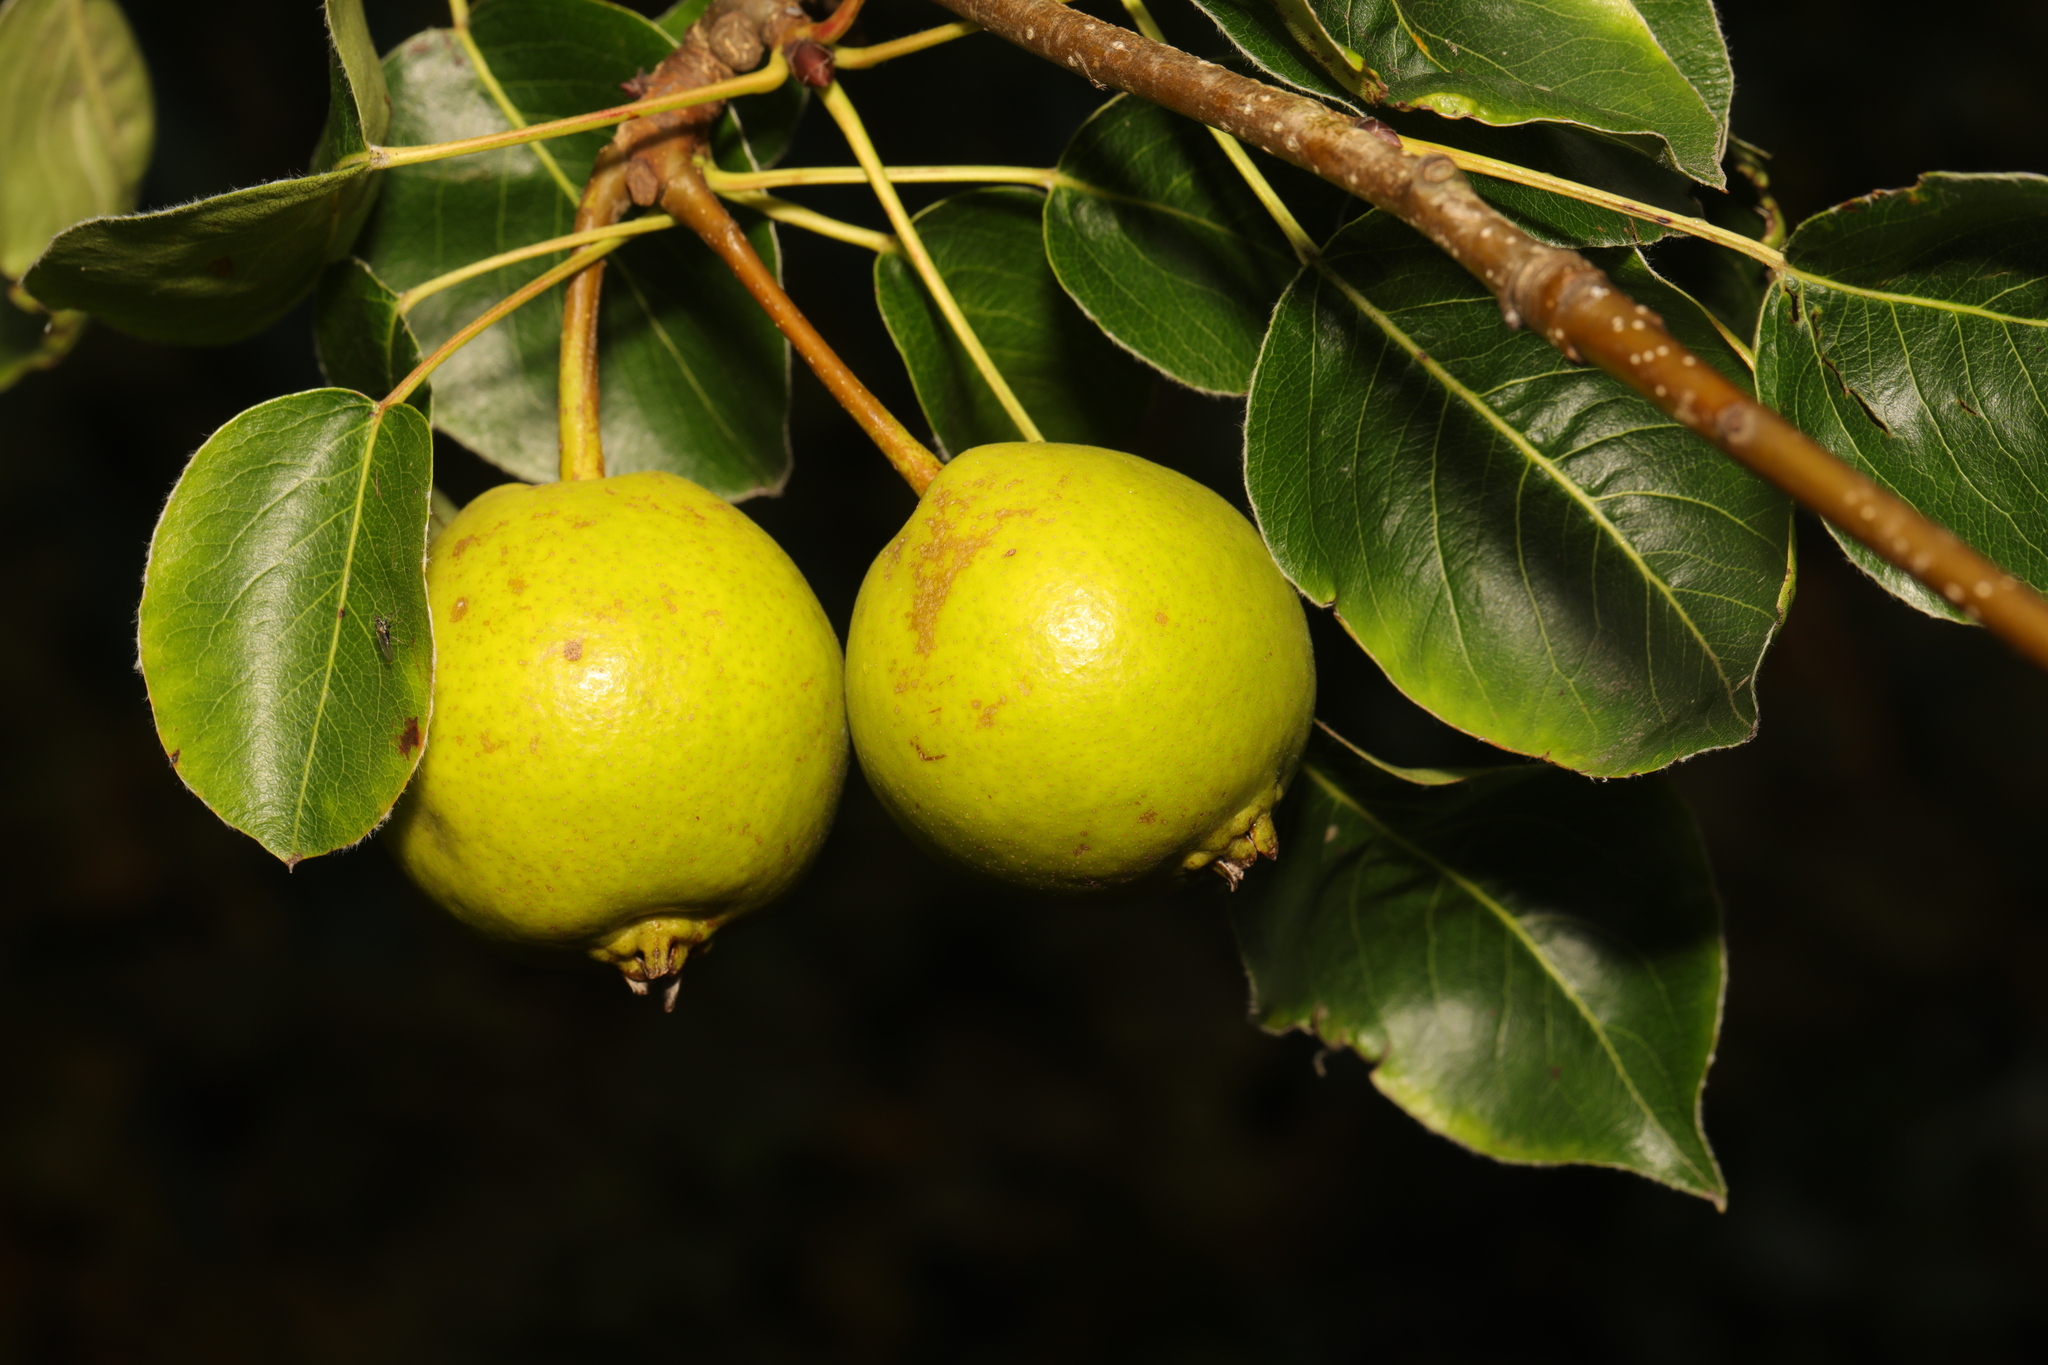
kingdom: Plantae
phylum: Tracheophyta
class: Magnoliopsida
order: Rosales
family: Rosaceae
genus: Malus
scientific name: Malus domestica
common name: Apple
